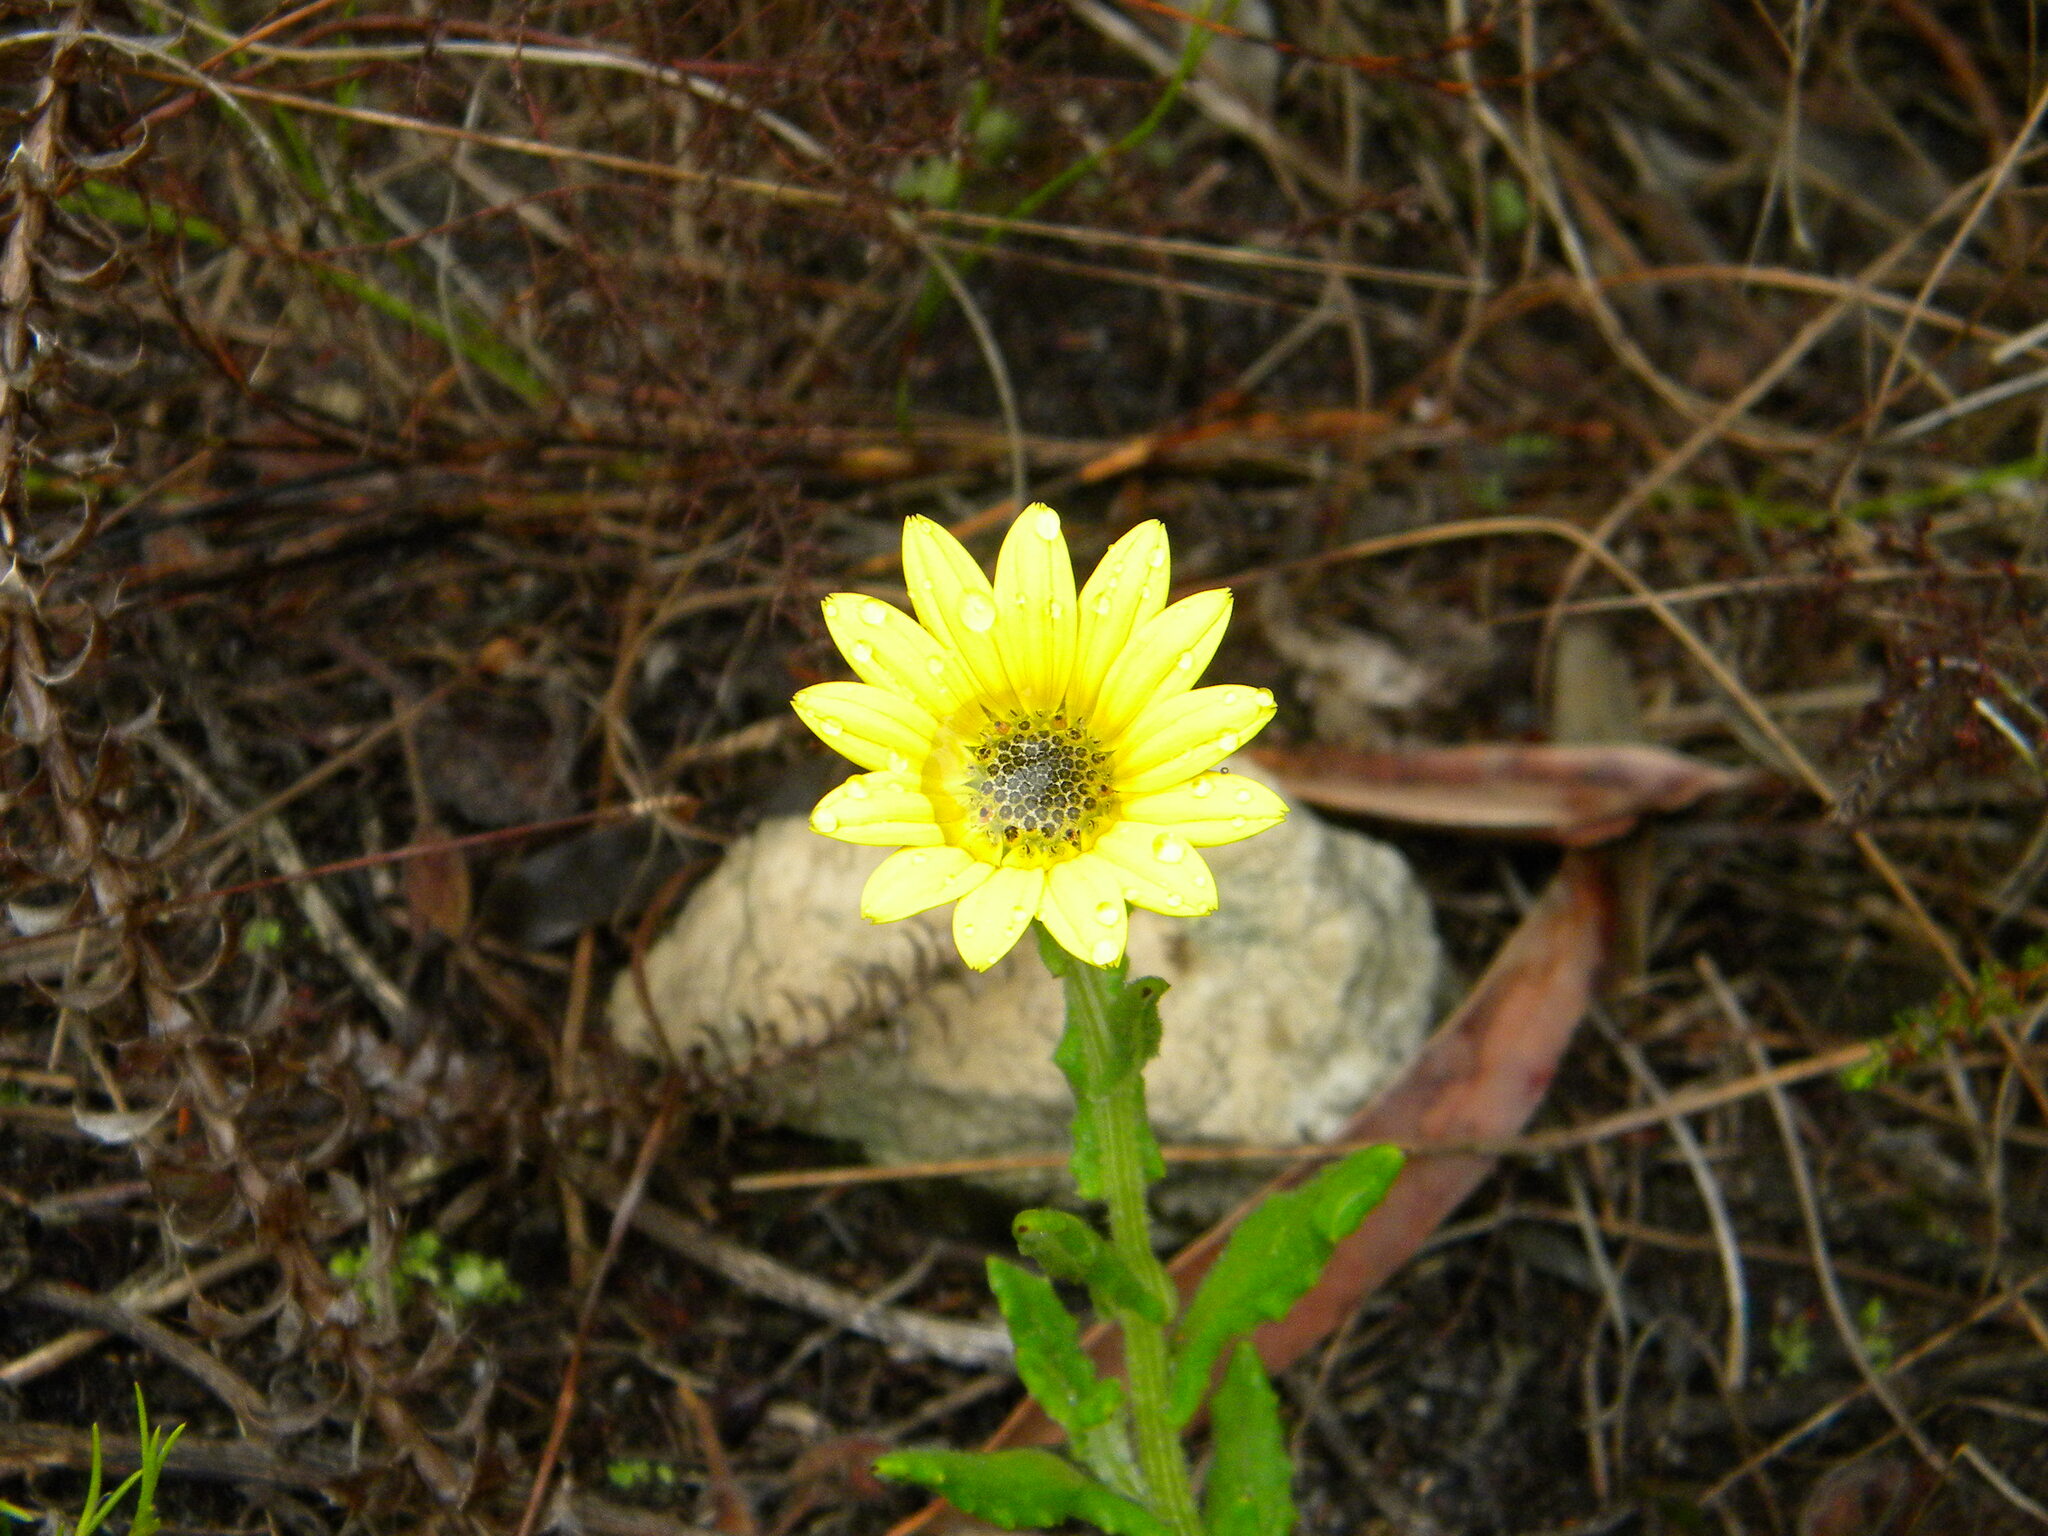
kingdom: Plantae
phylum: Tracheophyta
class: Magnoliopsida
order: Asterales
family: Asteraceae
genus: Arctotis
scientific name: Arctotis scabra
